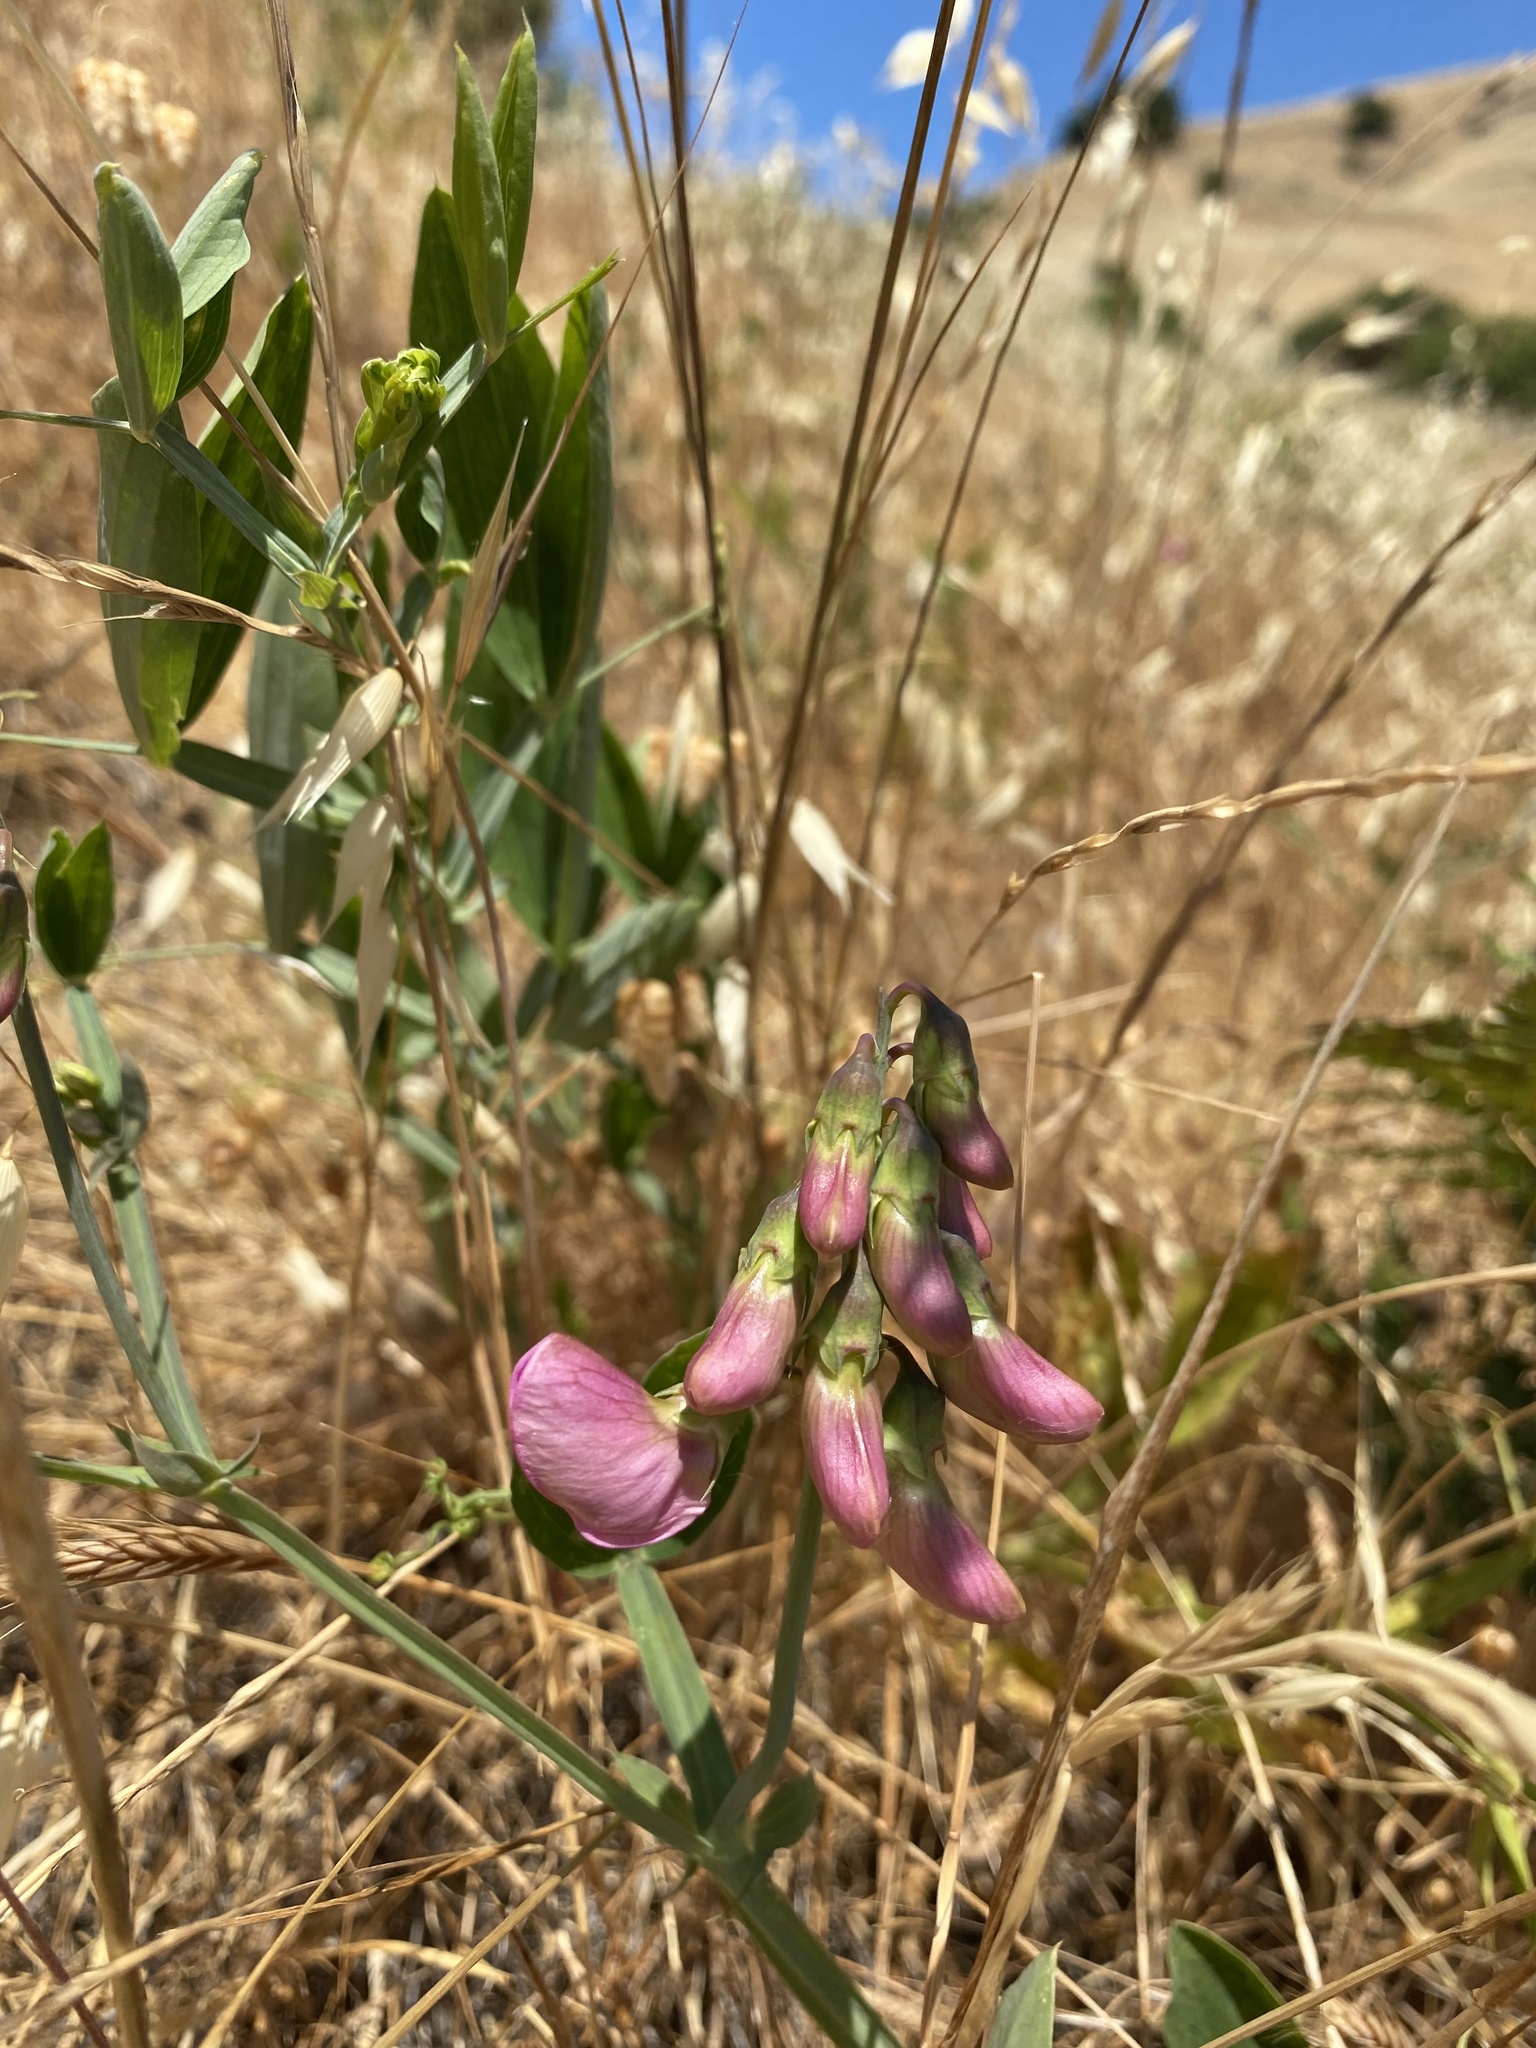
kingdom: Plantae
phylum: Tracheophyta
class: Magnoliopsida
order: Fabales
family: Fabaceae
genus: Lathyrus
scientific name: Lathyrus latifolius
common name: Perennial pea
